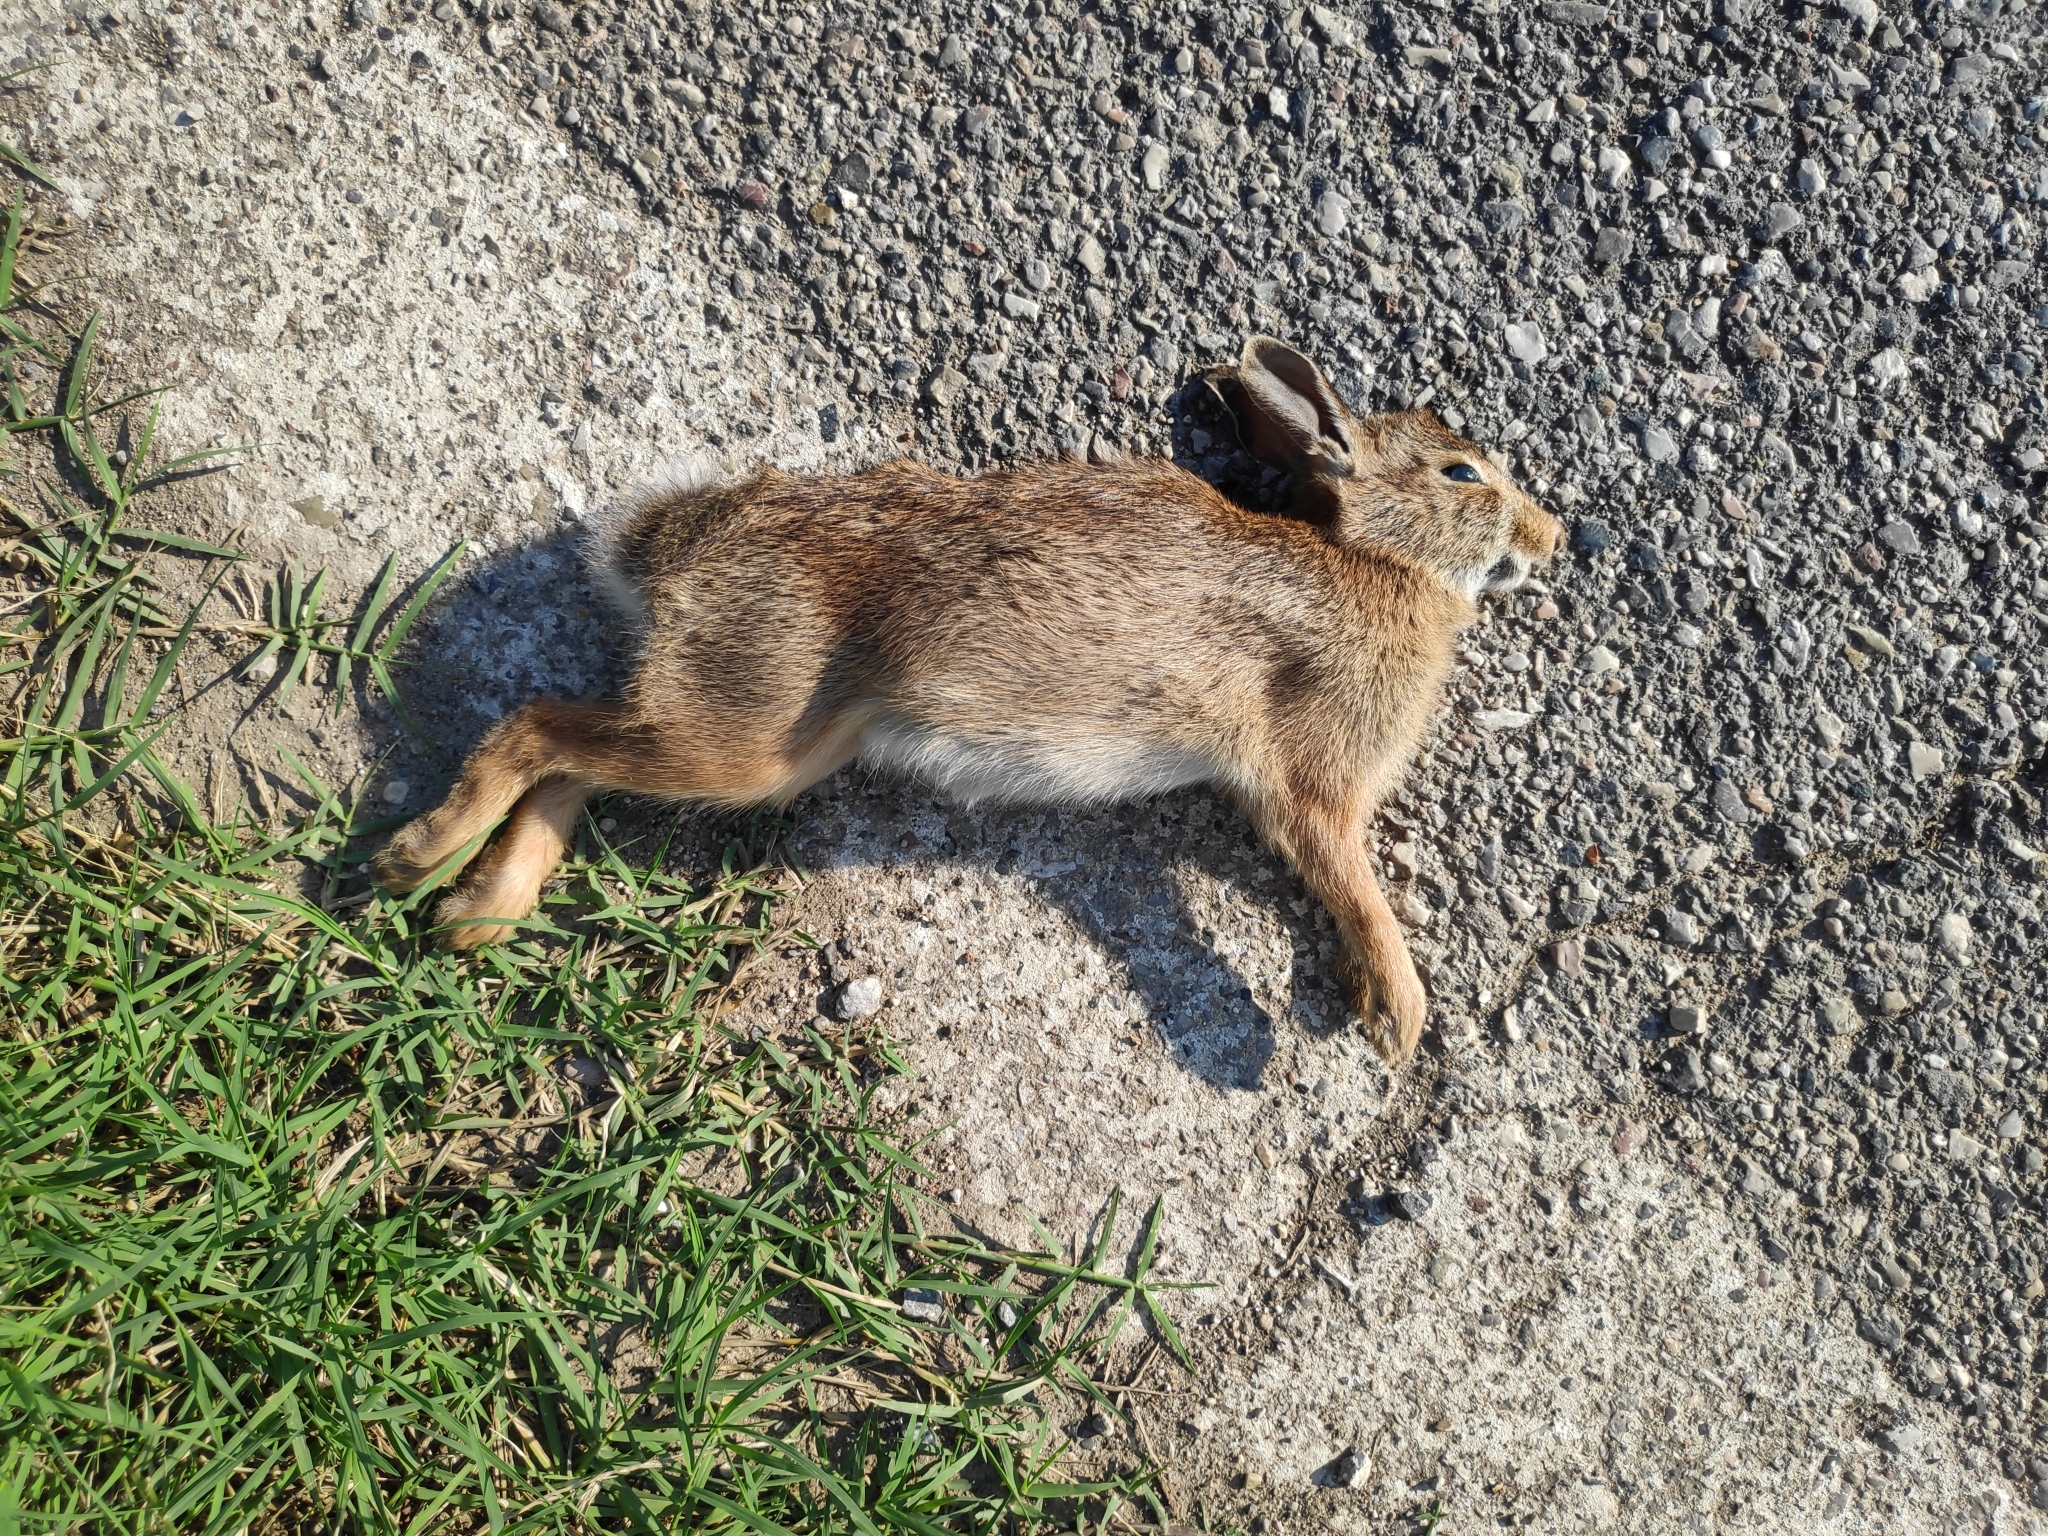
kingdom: Animalia
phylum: Chordata
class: Mammalia
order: Lagomorpha
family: Leporidae
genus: Sylvilagus
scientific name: Sylvilagus floridanus
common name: Eastern cottontail
